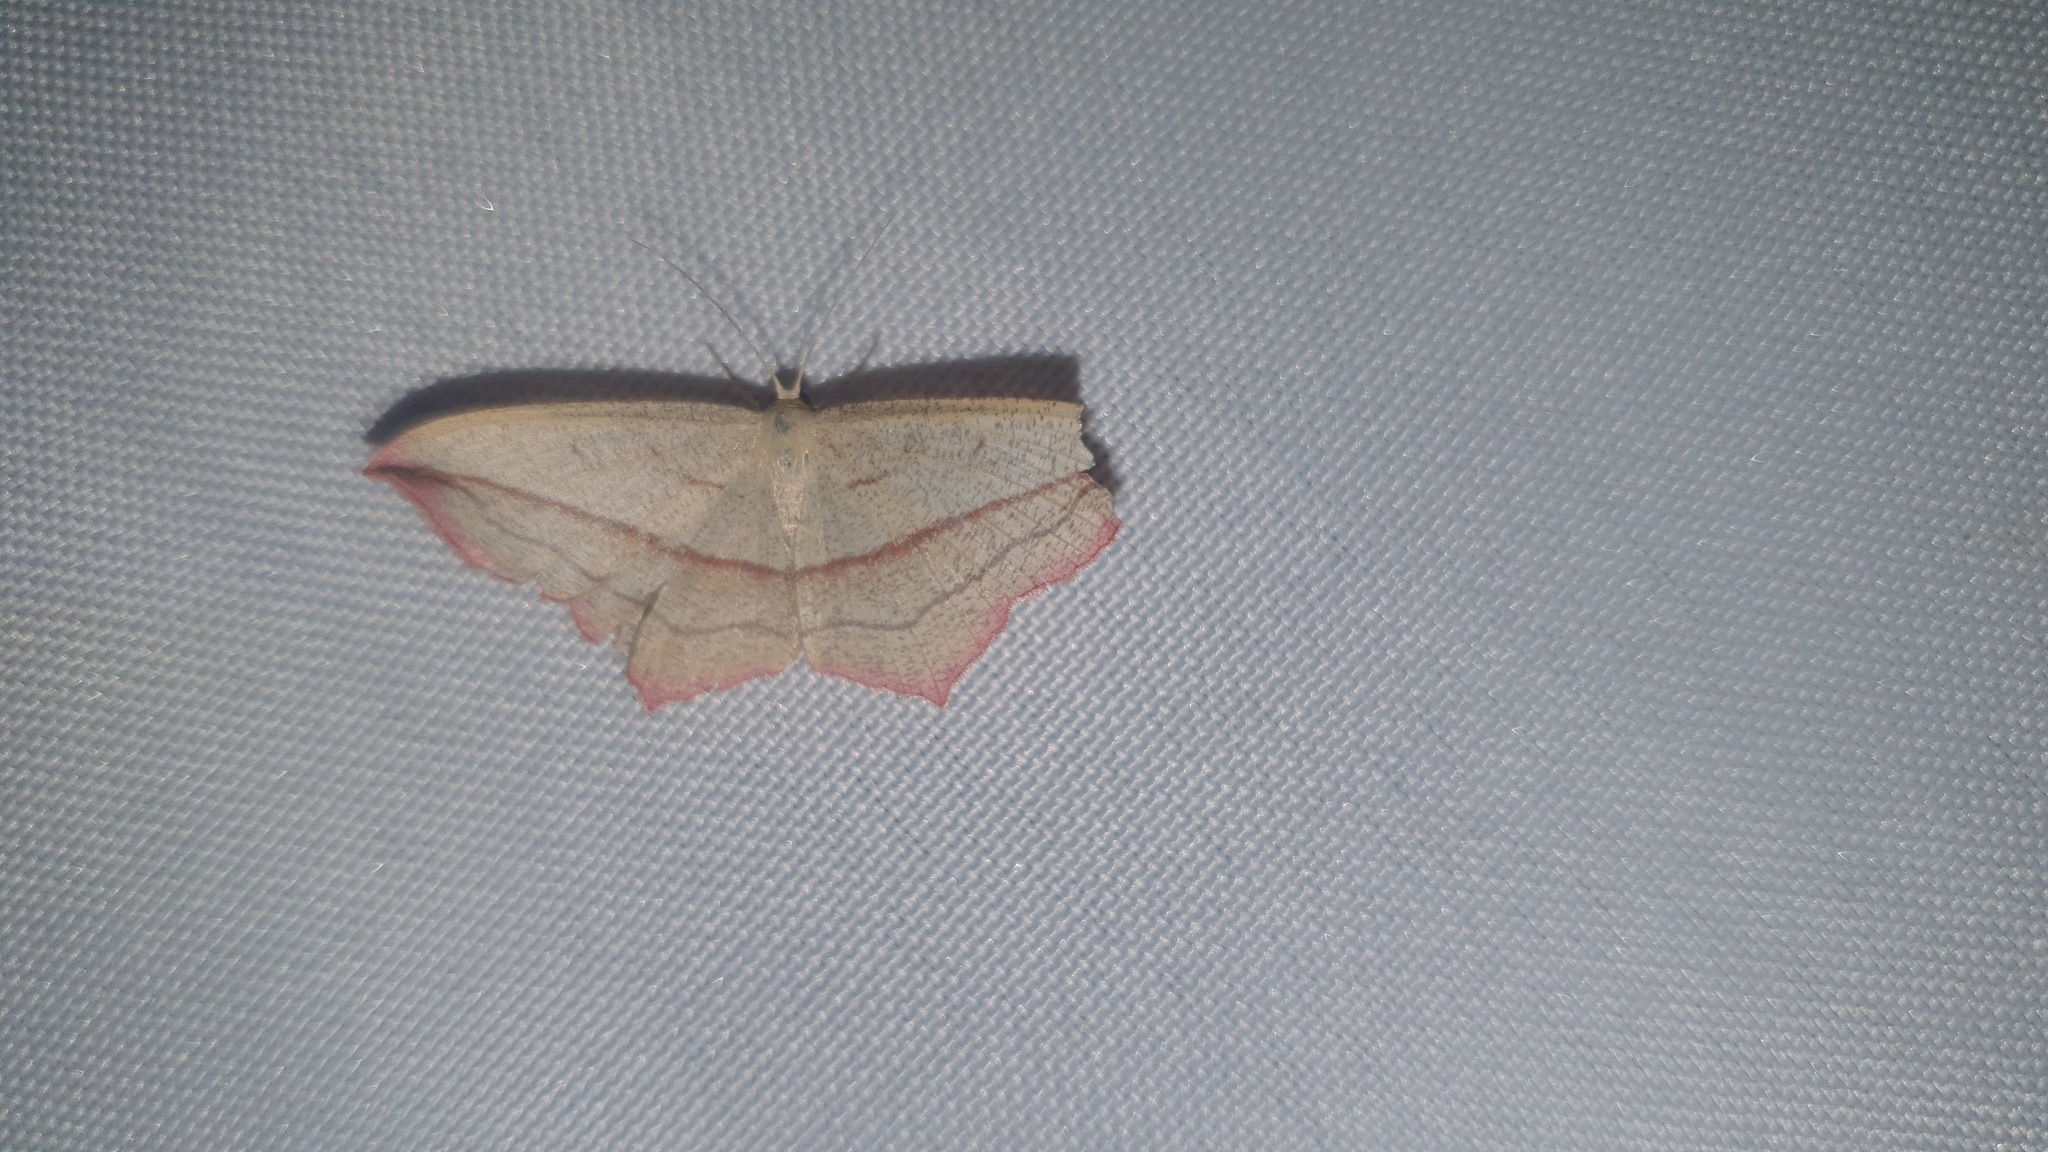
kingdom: Animalia
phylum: Arthropoda
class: Insecta
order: Lepidoptera
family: Geometridae
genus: Timandra
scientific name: Timandra comae
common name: Blood-vein
